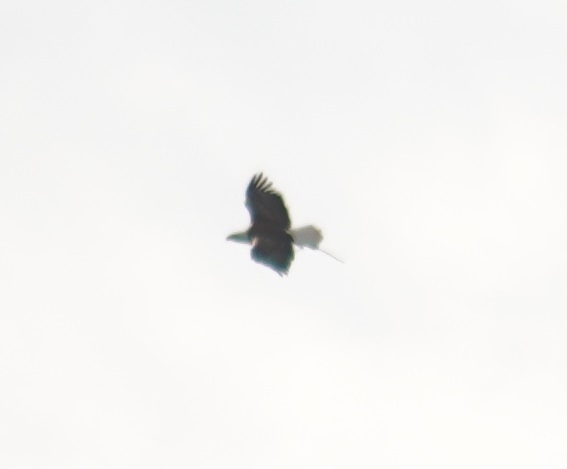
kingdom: Animalia
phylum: Chordata
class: Aves
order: Accipitriformes
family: Accipitridae
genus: Haliaeetus
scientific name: Haliaeetus leucocephalus
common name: Bald eagle
